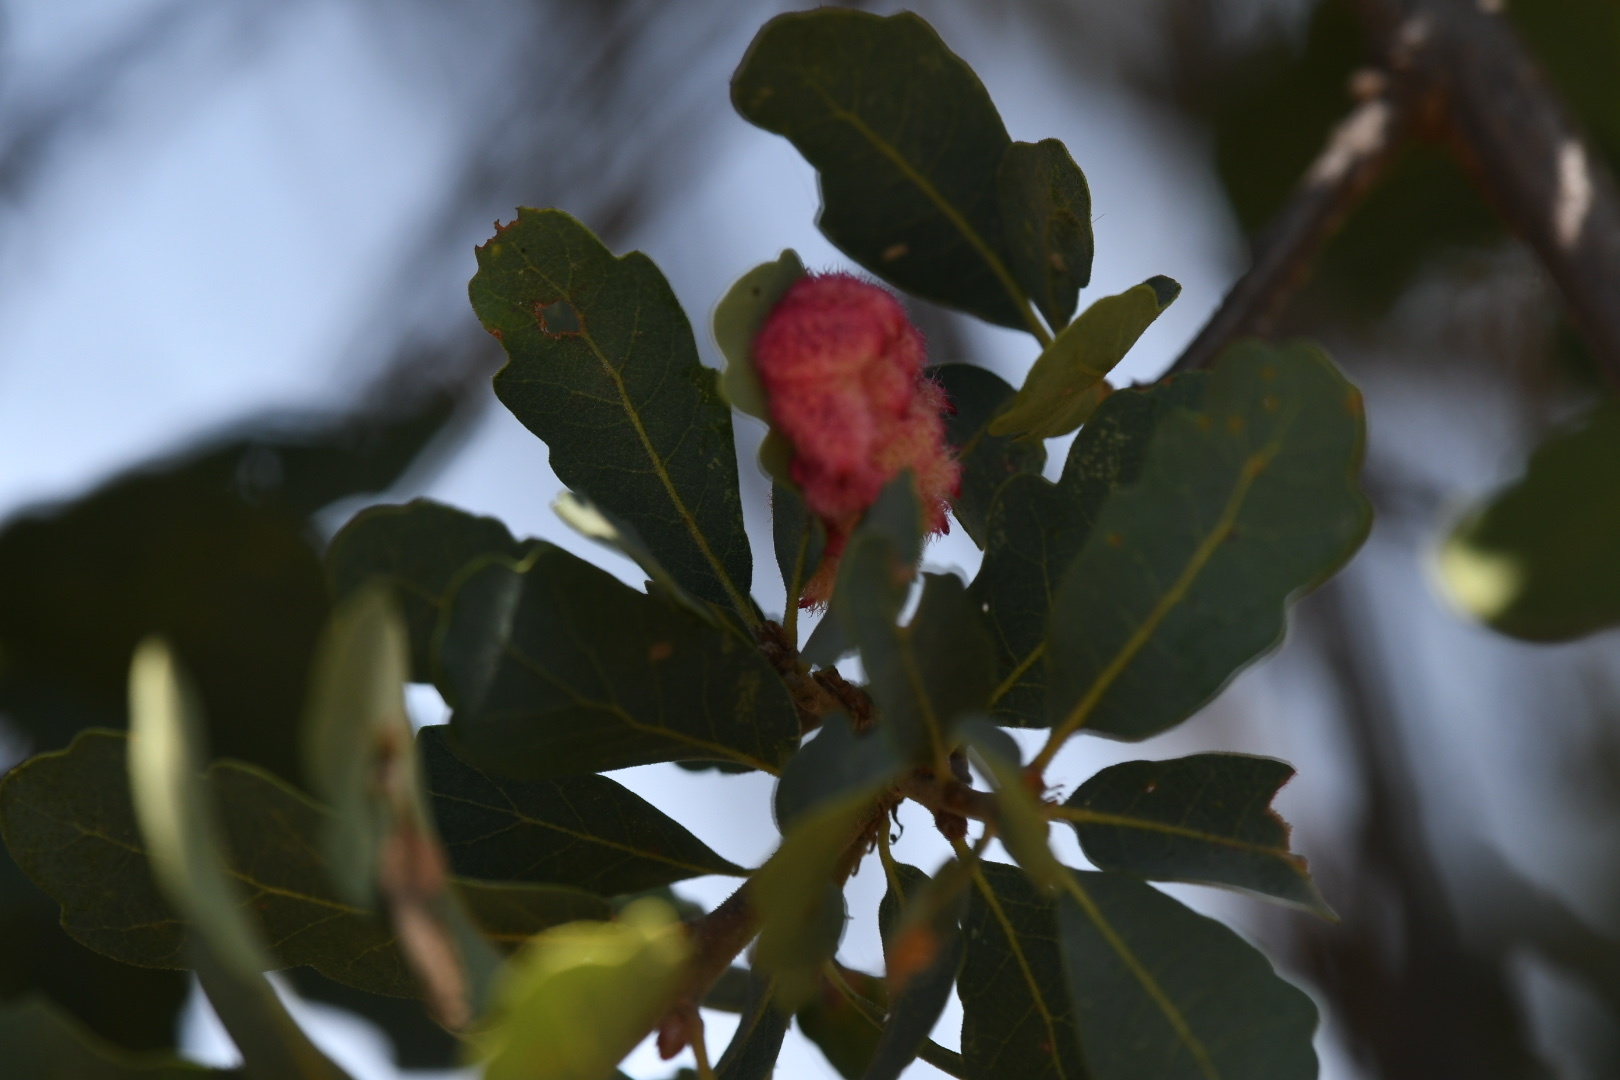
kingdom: Animalia
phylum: Arthropoda
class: Insecta
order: Hymenoptera
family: Cynipidae
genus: Andricus
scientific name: Andricus
